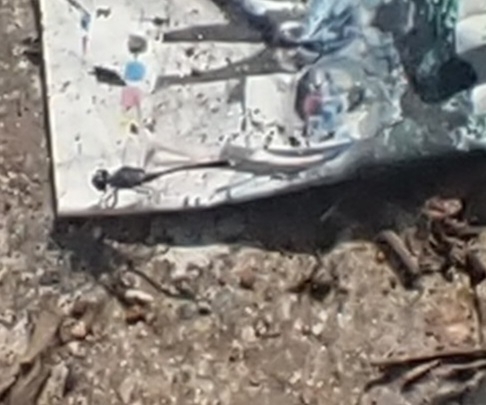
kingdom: Animalia
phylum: Arthropoda
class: Insecta
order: Odonata
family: Libellulidae
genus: Diplacodes
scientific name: Diplacodes trivialis
